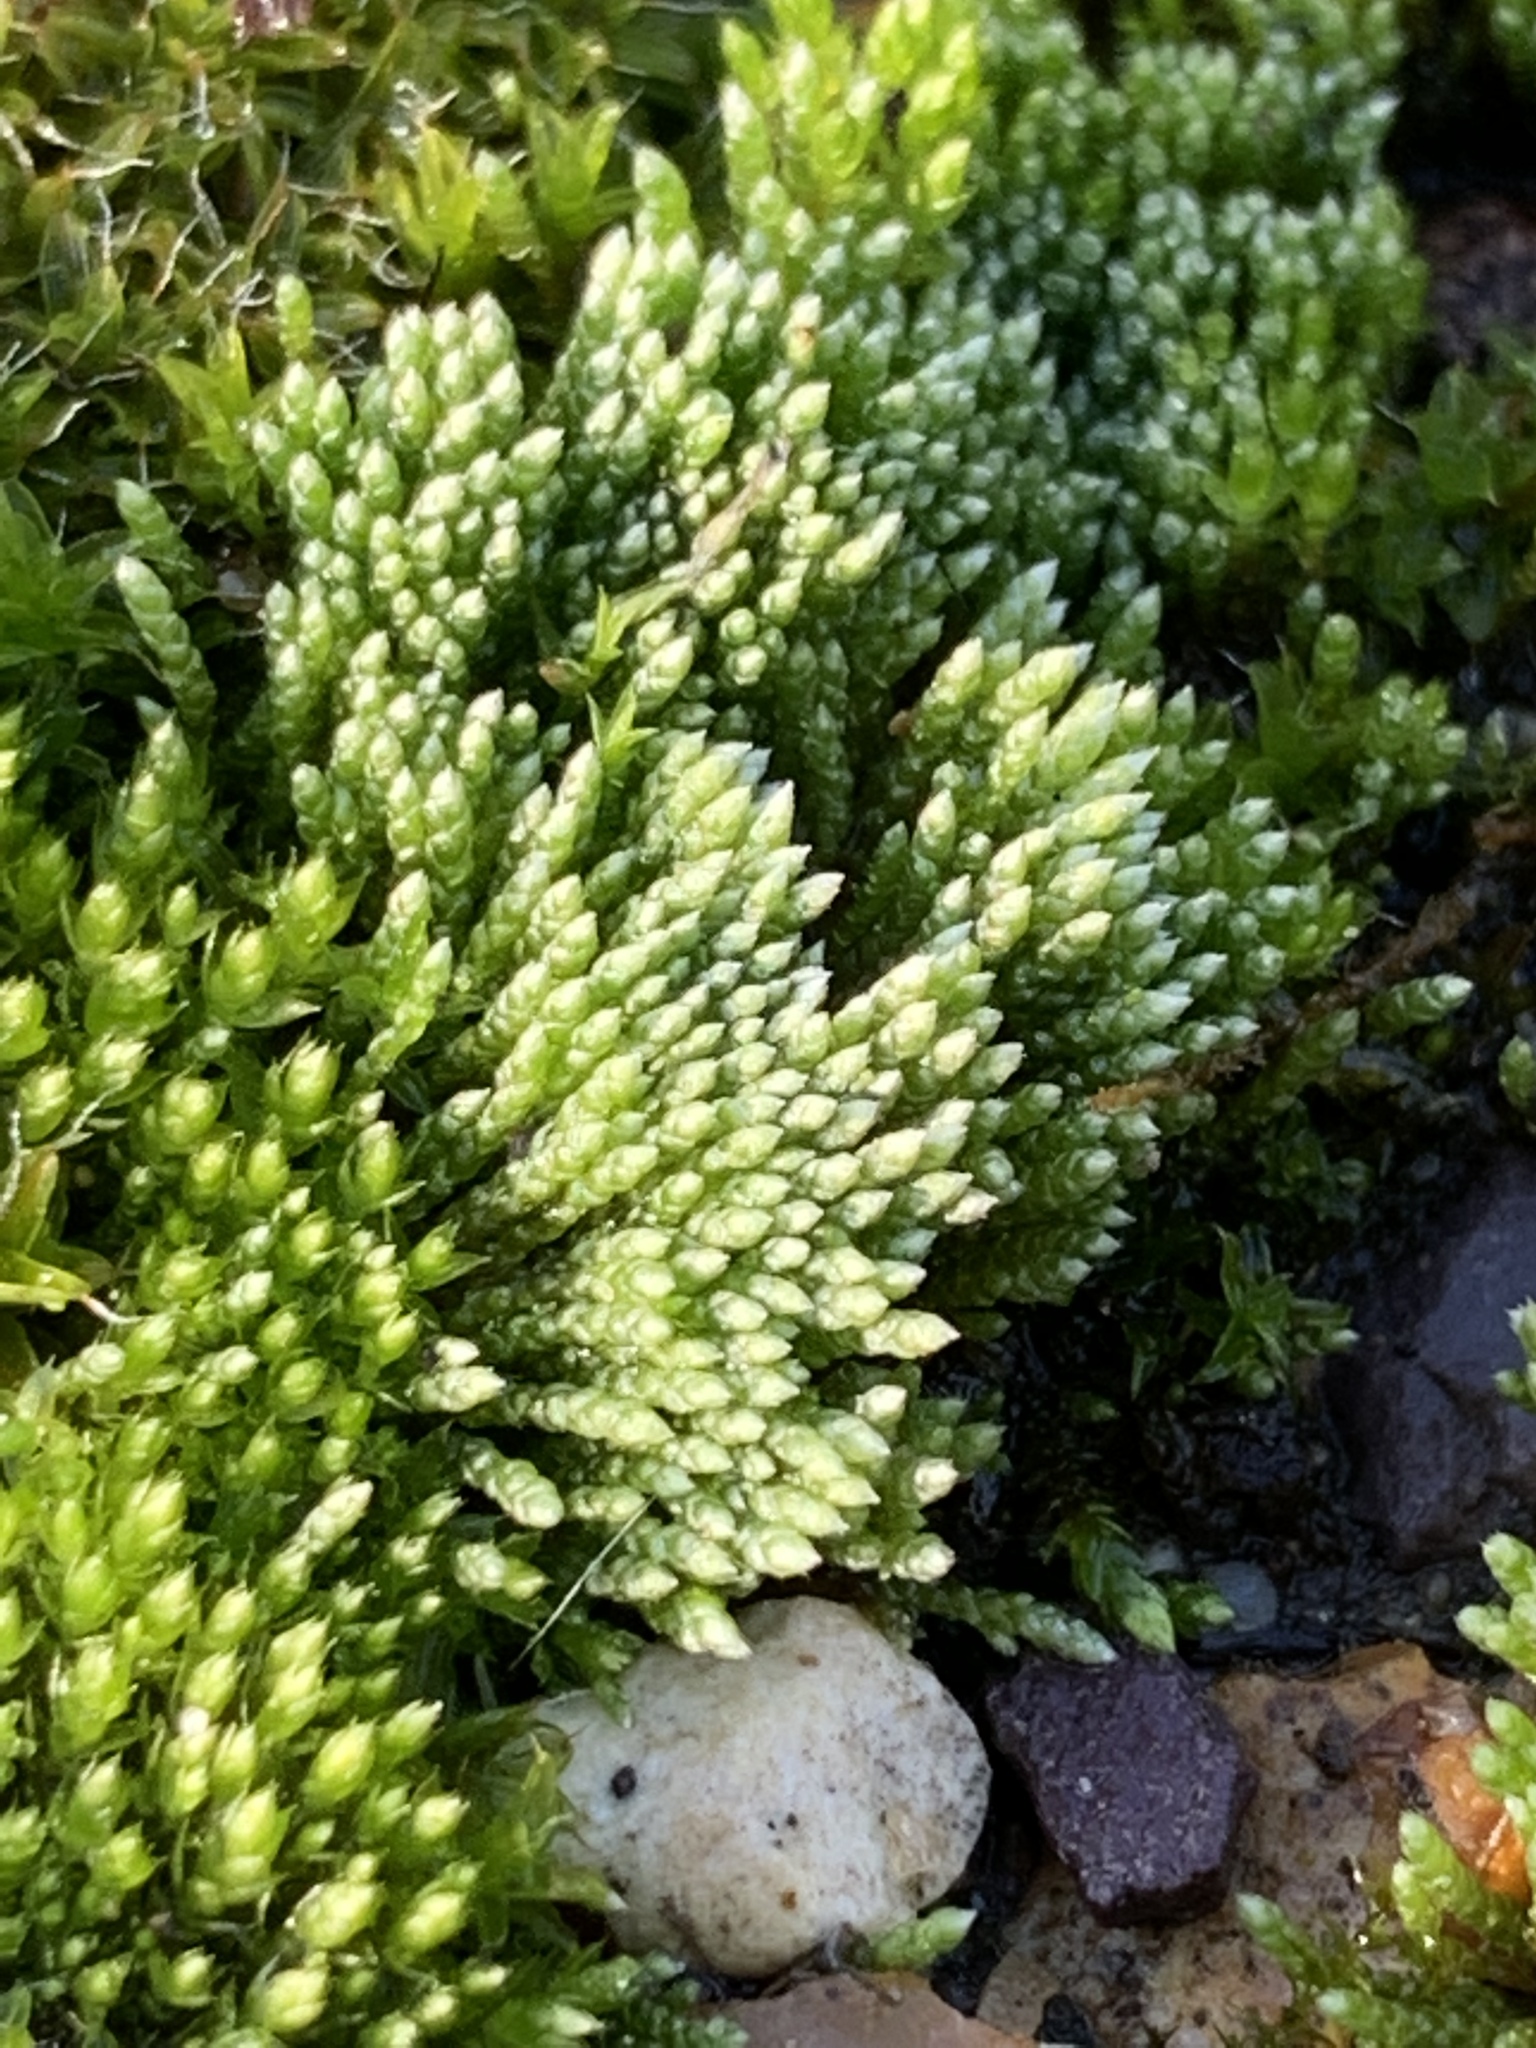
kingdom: Plantae
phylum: Bryophyta
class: Bryopsida
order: Bryales
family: Bryaceae
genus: Bryum
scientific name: Bryum argenteum
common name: Silver-moss
